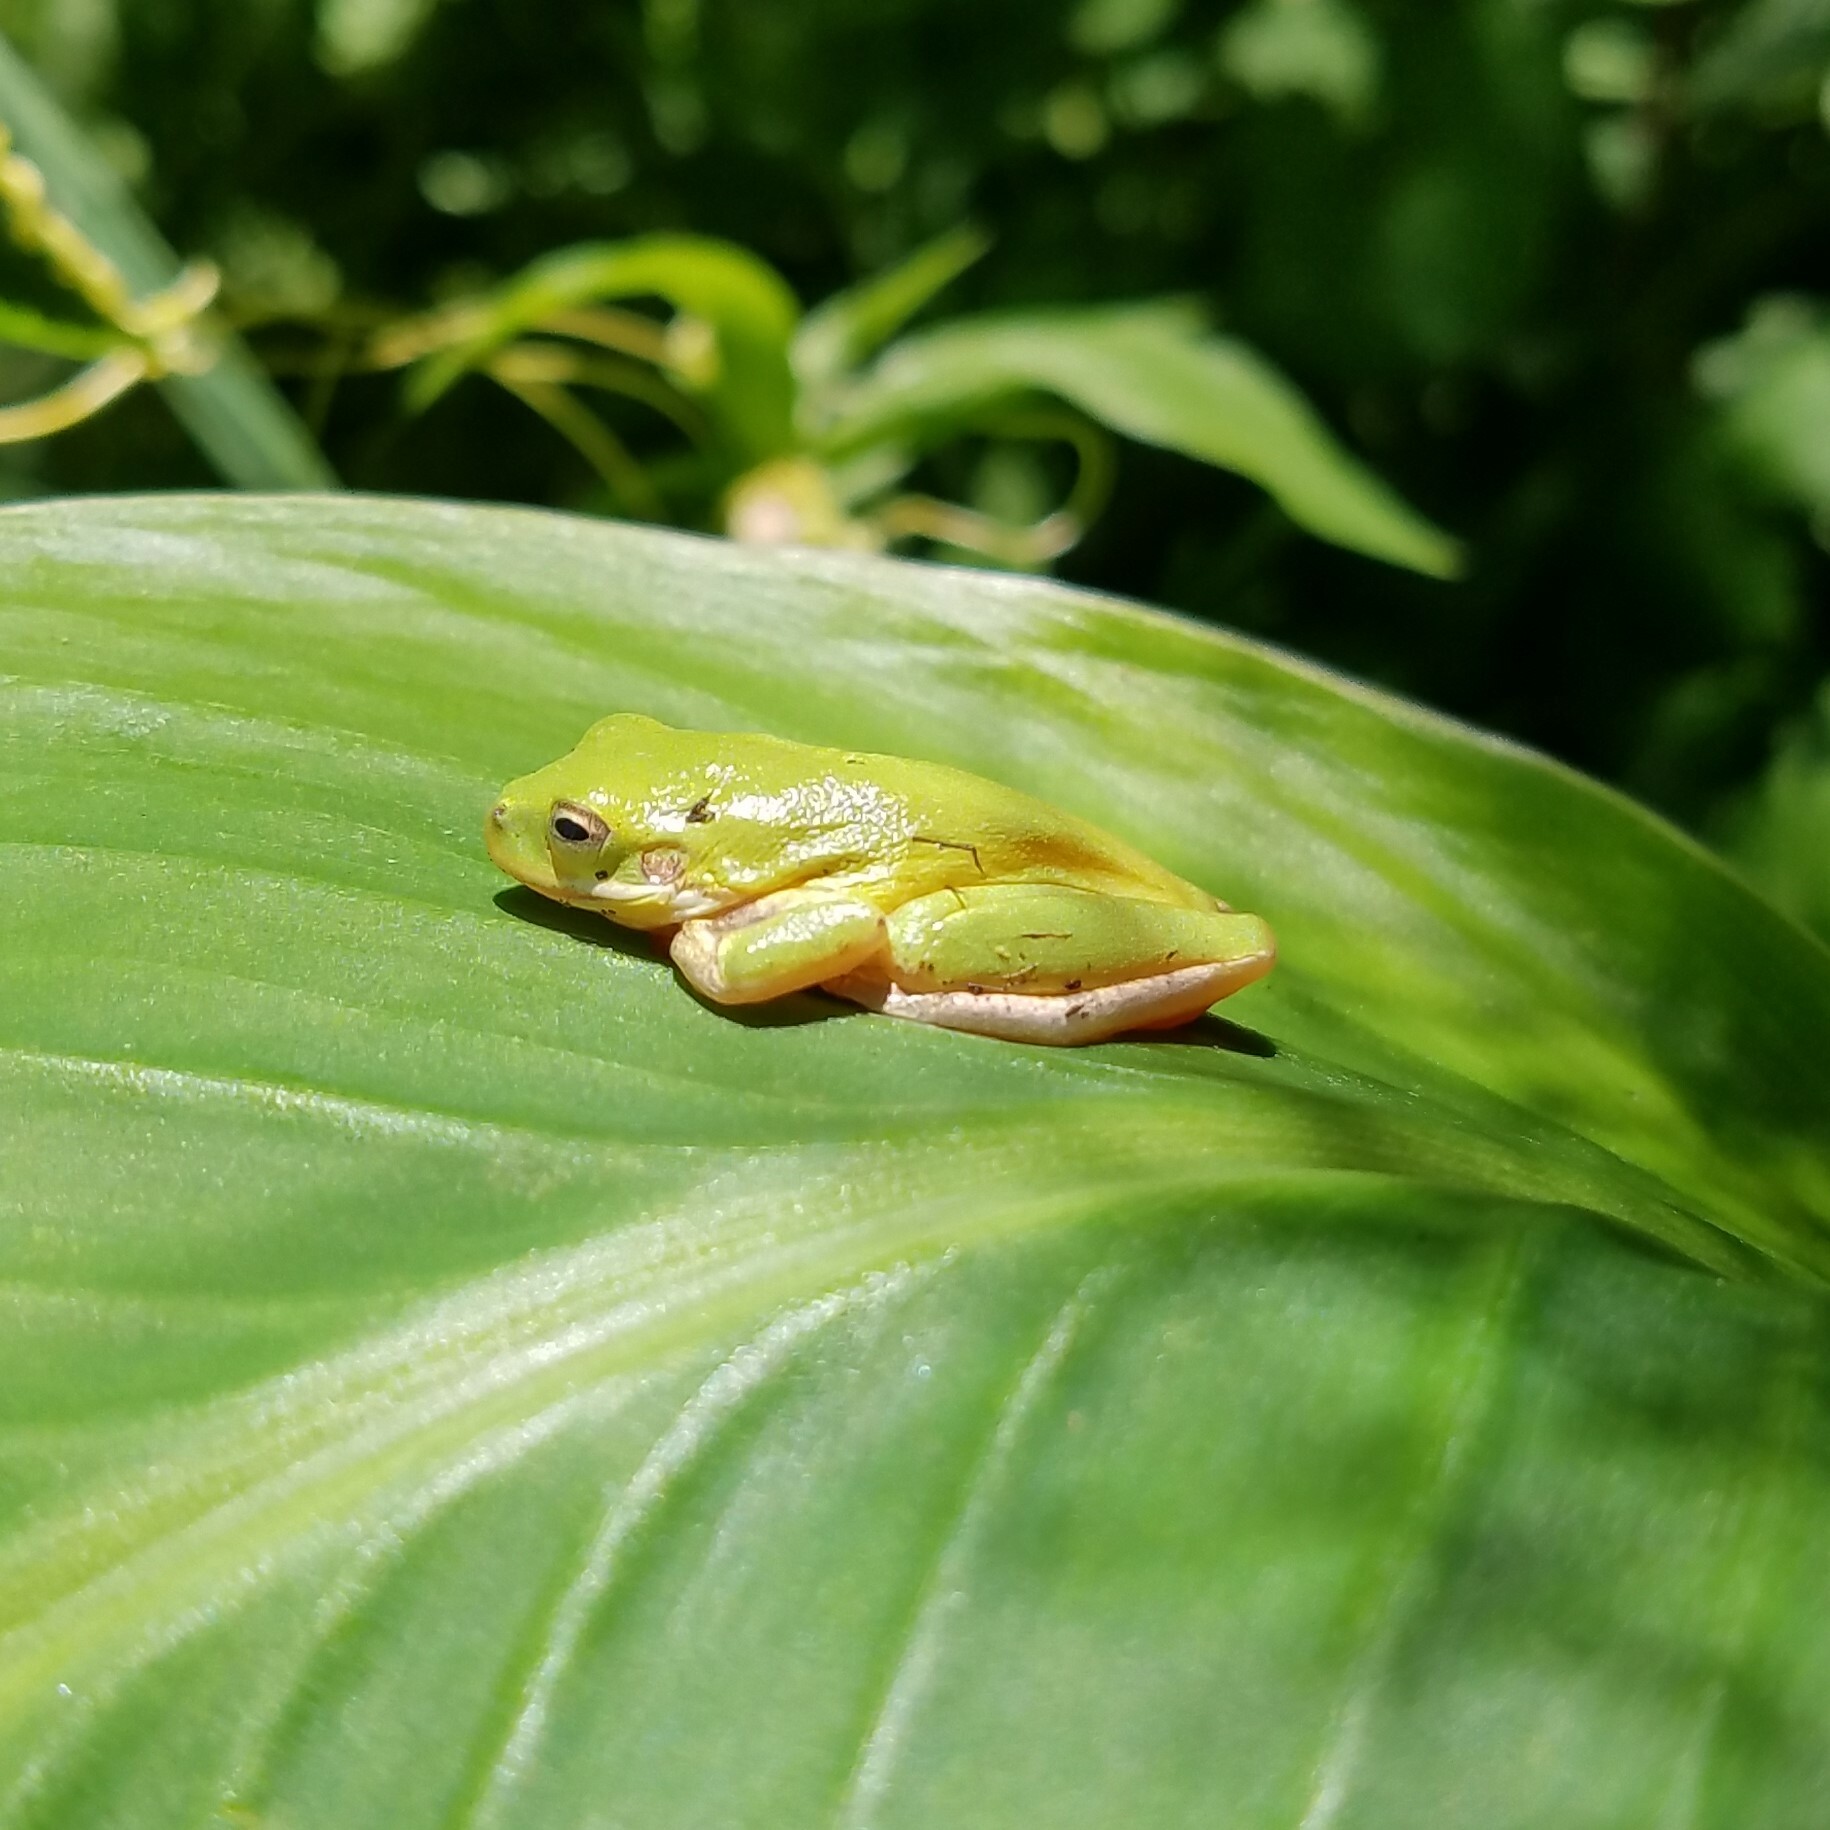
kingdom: Animalia
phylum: Chordata
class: Amphibia
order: Anura
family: Hylidae
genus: Dryophytes
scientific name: Dryophytes cinereus
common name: Green treefrog
